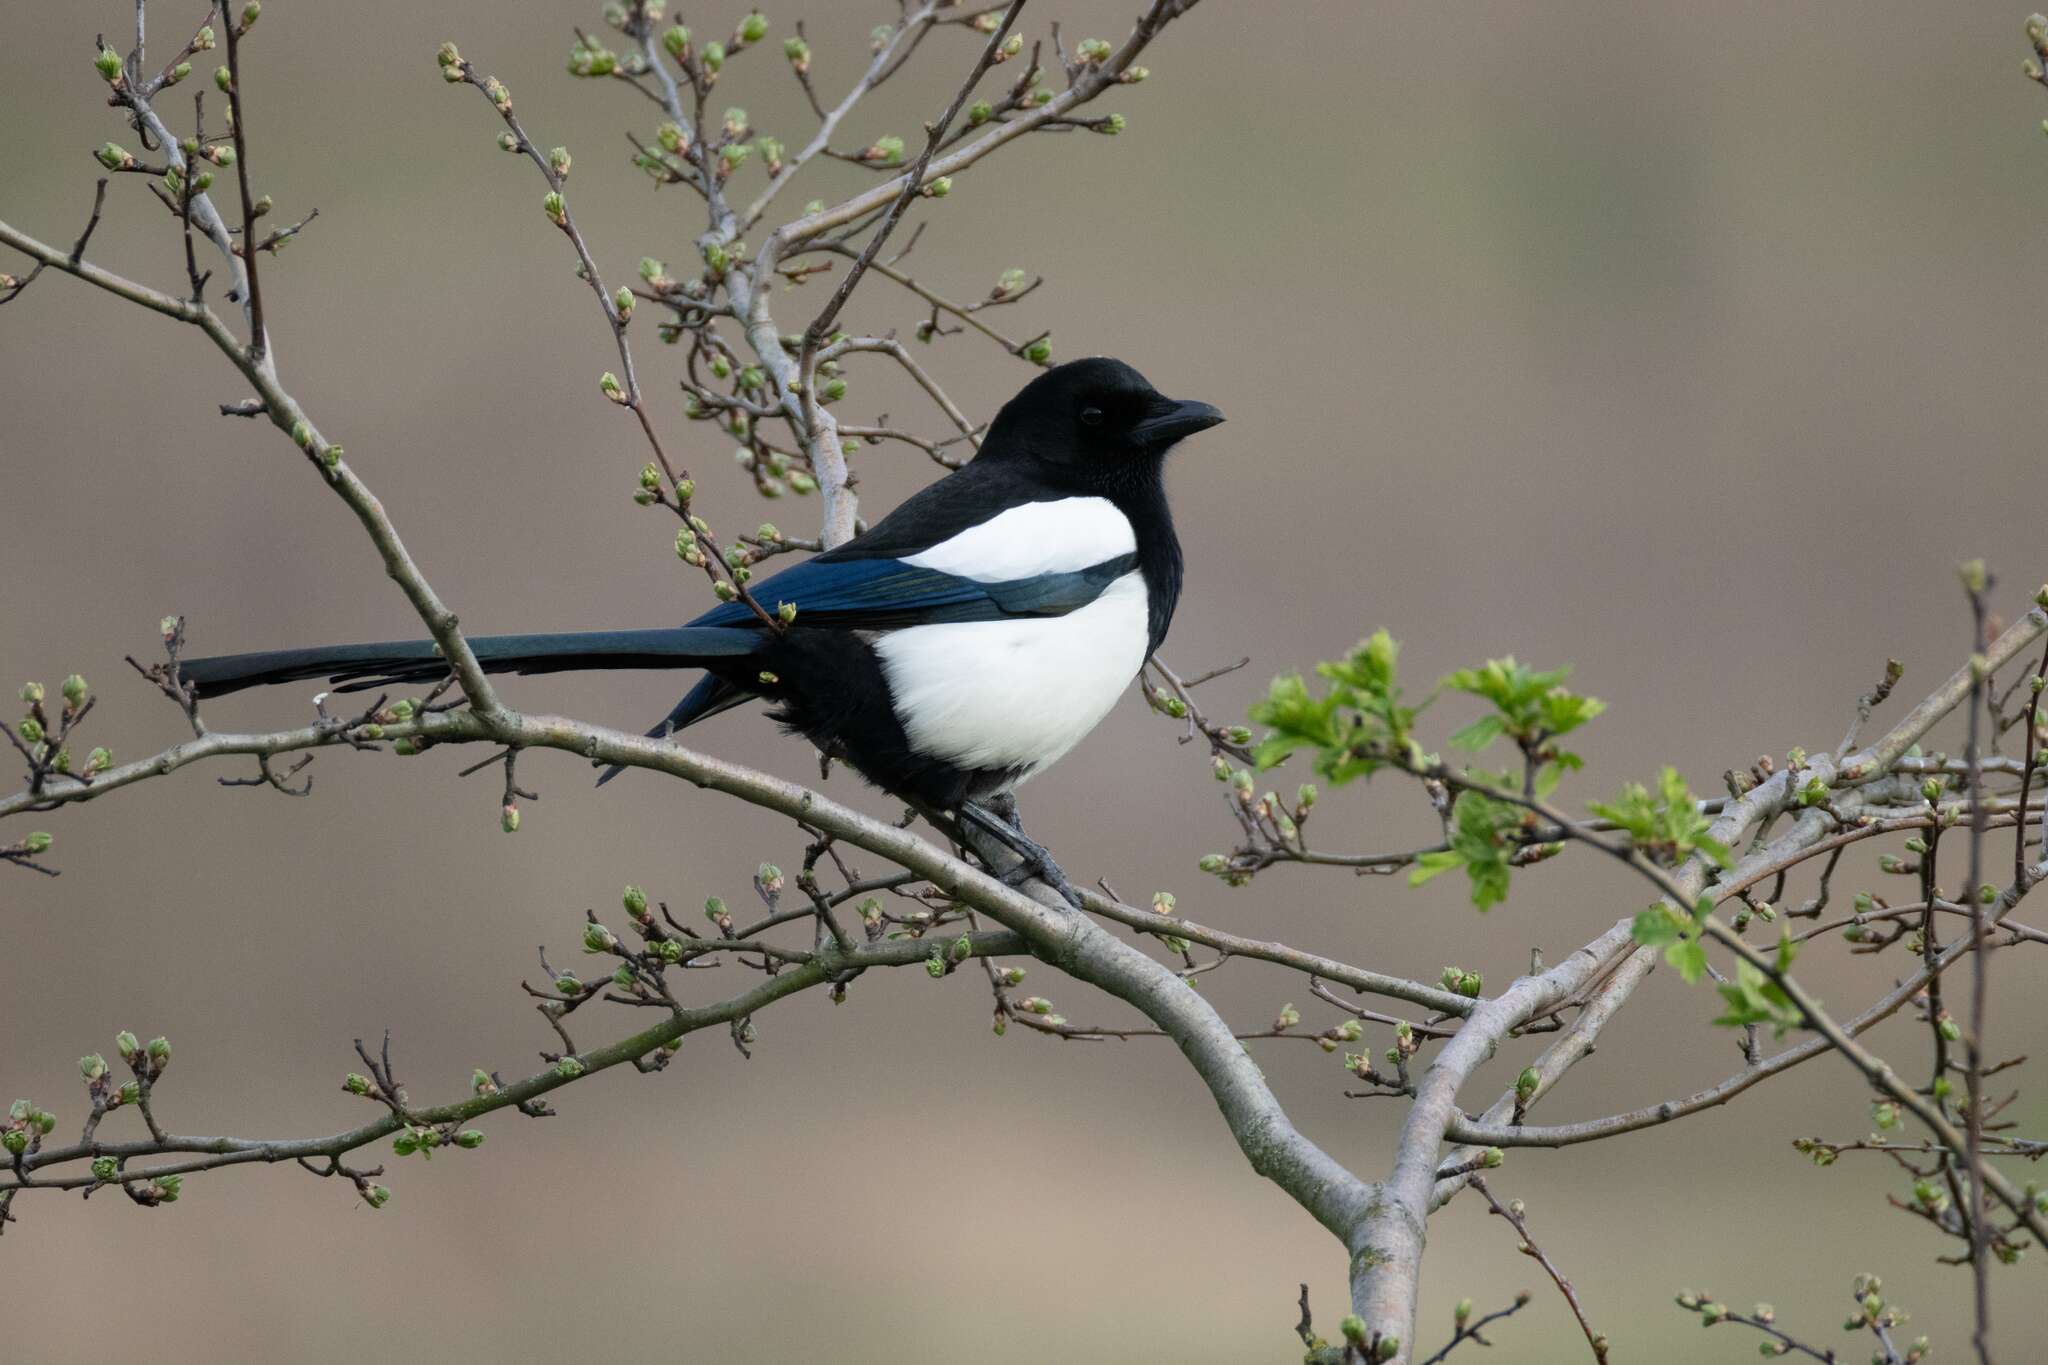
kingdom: Animalia
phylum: Chordata
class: Aves
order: Passeriformes
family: Corvidae
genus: Pica
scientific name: Pica pica
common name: Eurasian magpie
